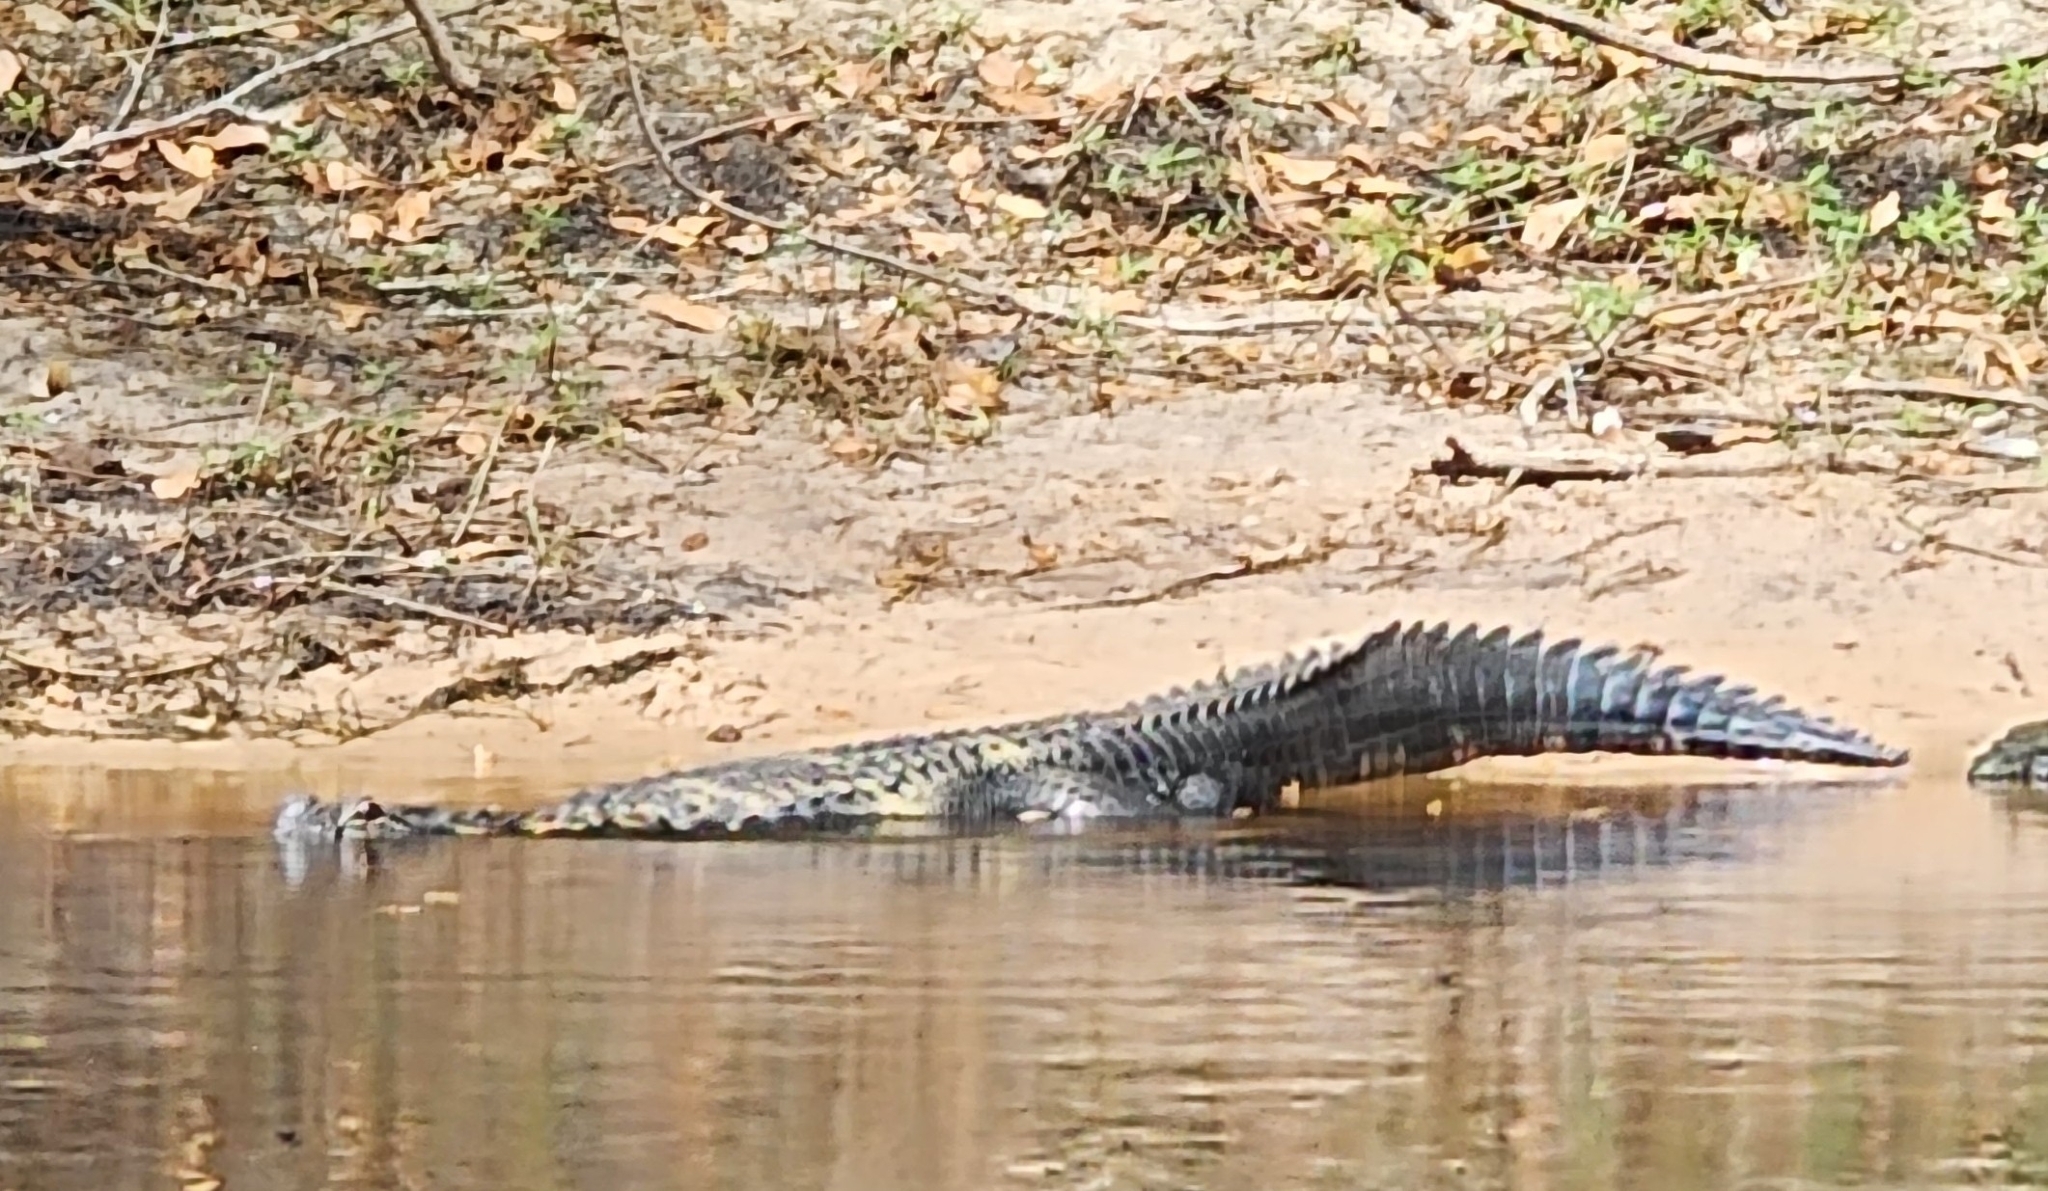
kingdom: Animalia
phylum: Chordata
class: Crocodylia
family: Alligatoridae
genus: Alligator
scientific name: Alligator mississippiensis
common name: American alligator
